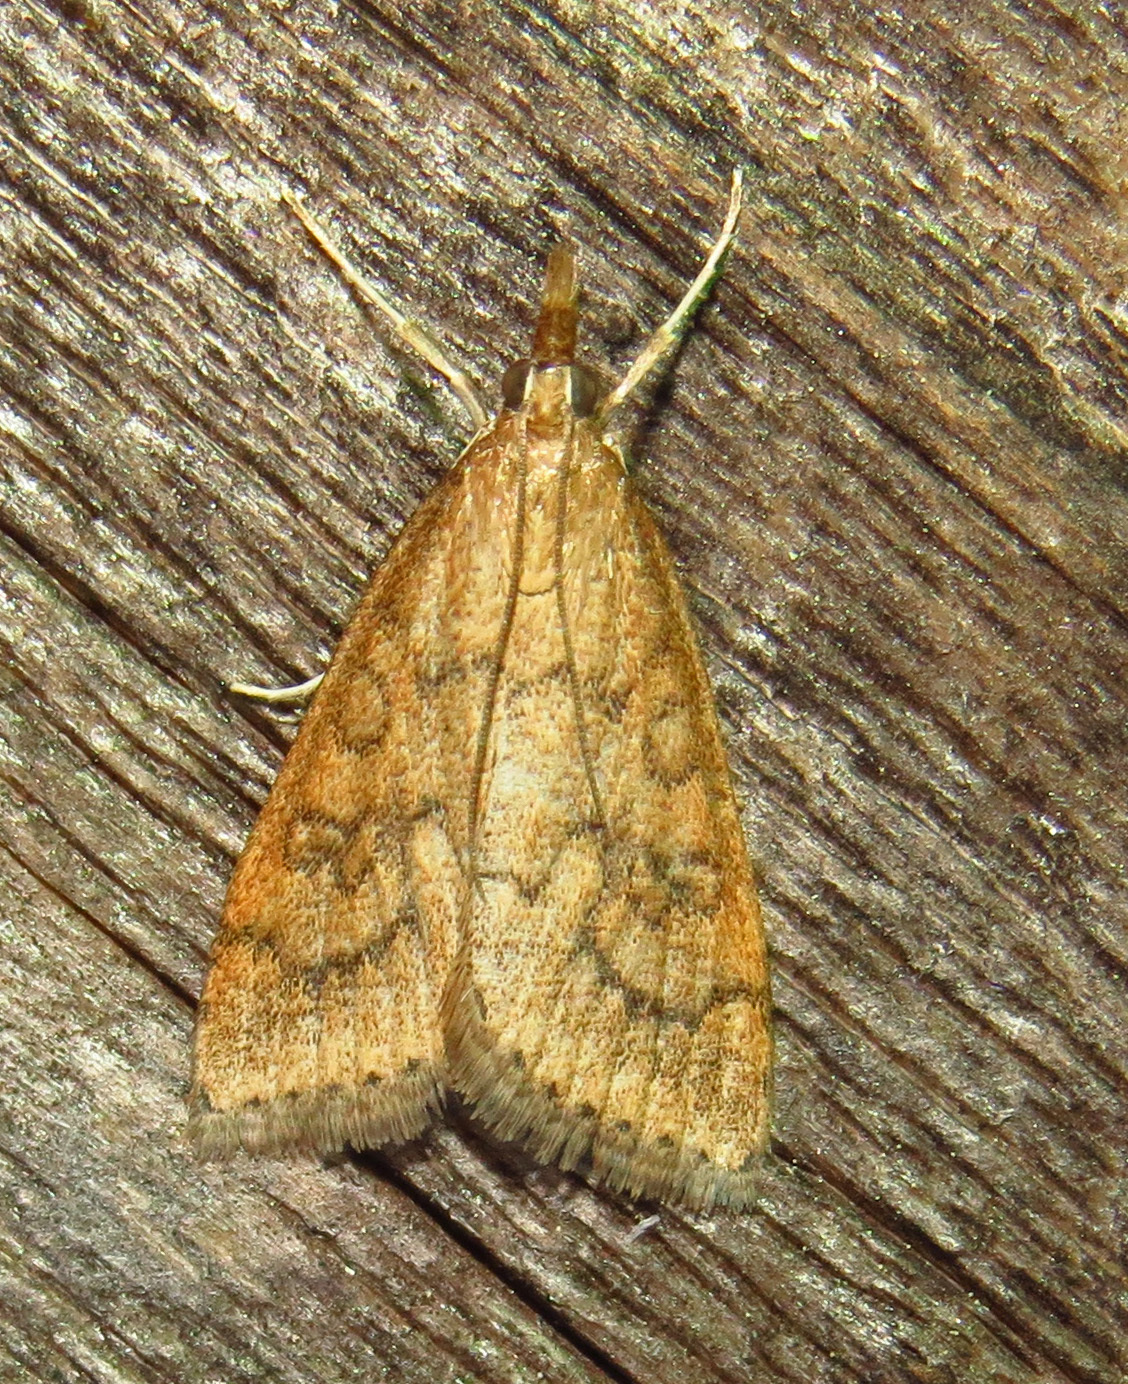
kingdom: Animalia
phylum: Arthropoda
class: Insecta
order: Lepidoptera
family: Crambidae
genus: Udea
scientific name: Udea rubigalis
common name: Celery leaftier moth
